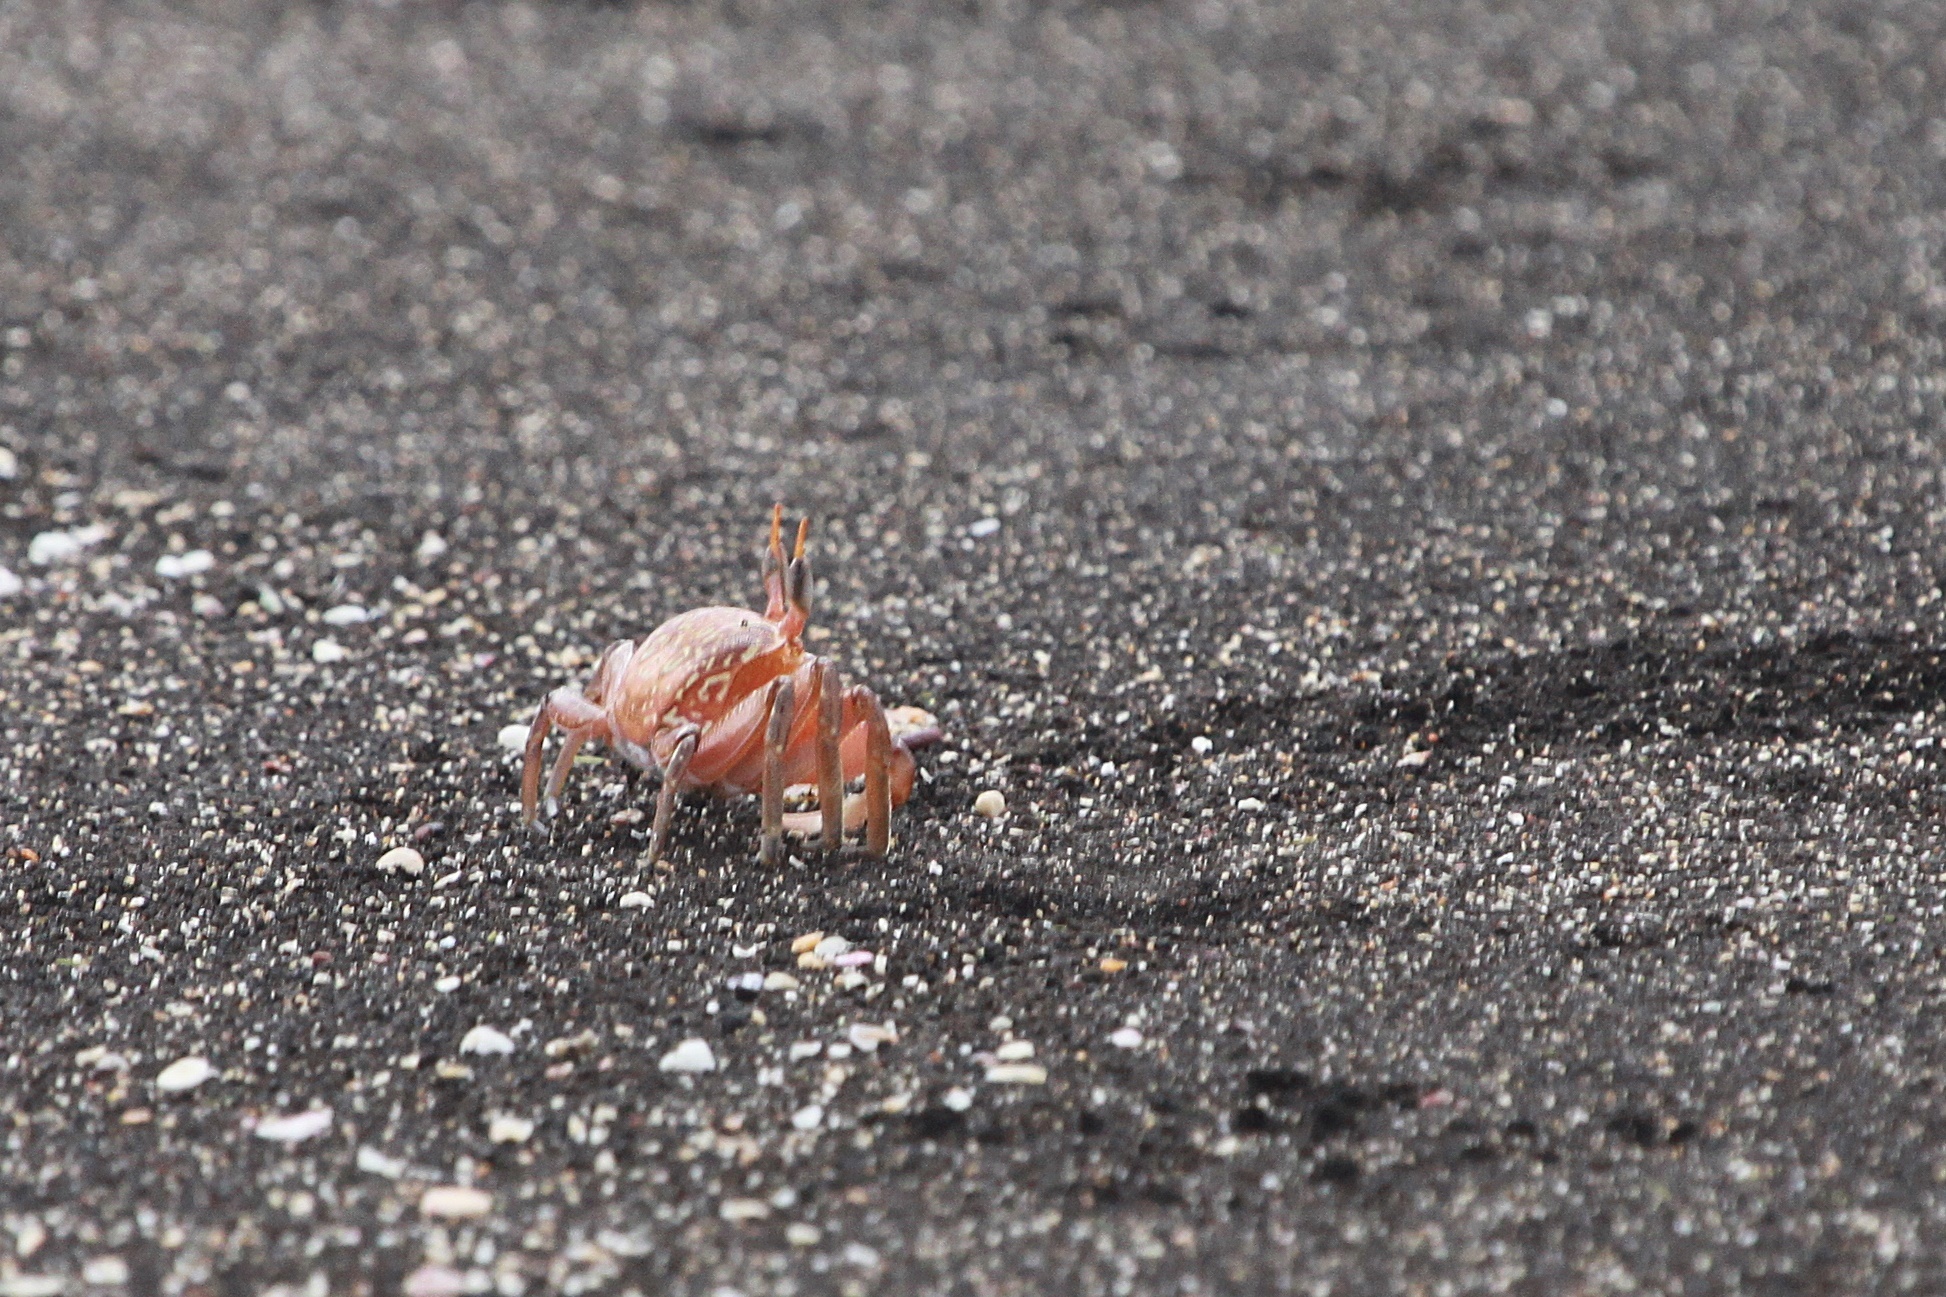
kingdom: Animalia
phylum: Arthropoda
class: Malacostraca
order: Decapoda
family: Ocypodidae
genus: Ocypode
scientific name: Ocypode gaudichaudii
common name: Pacific ghost crab
